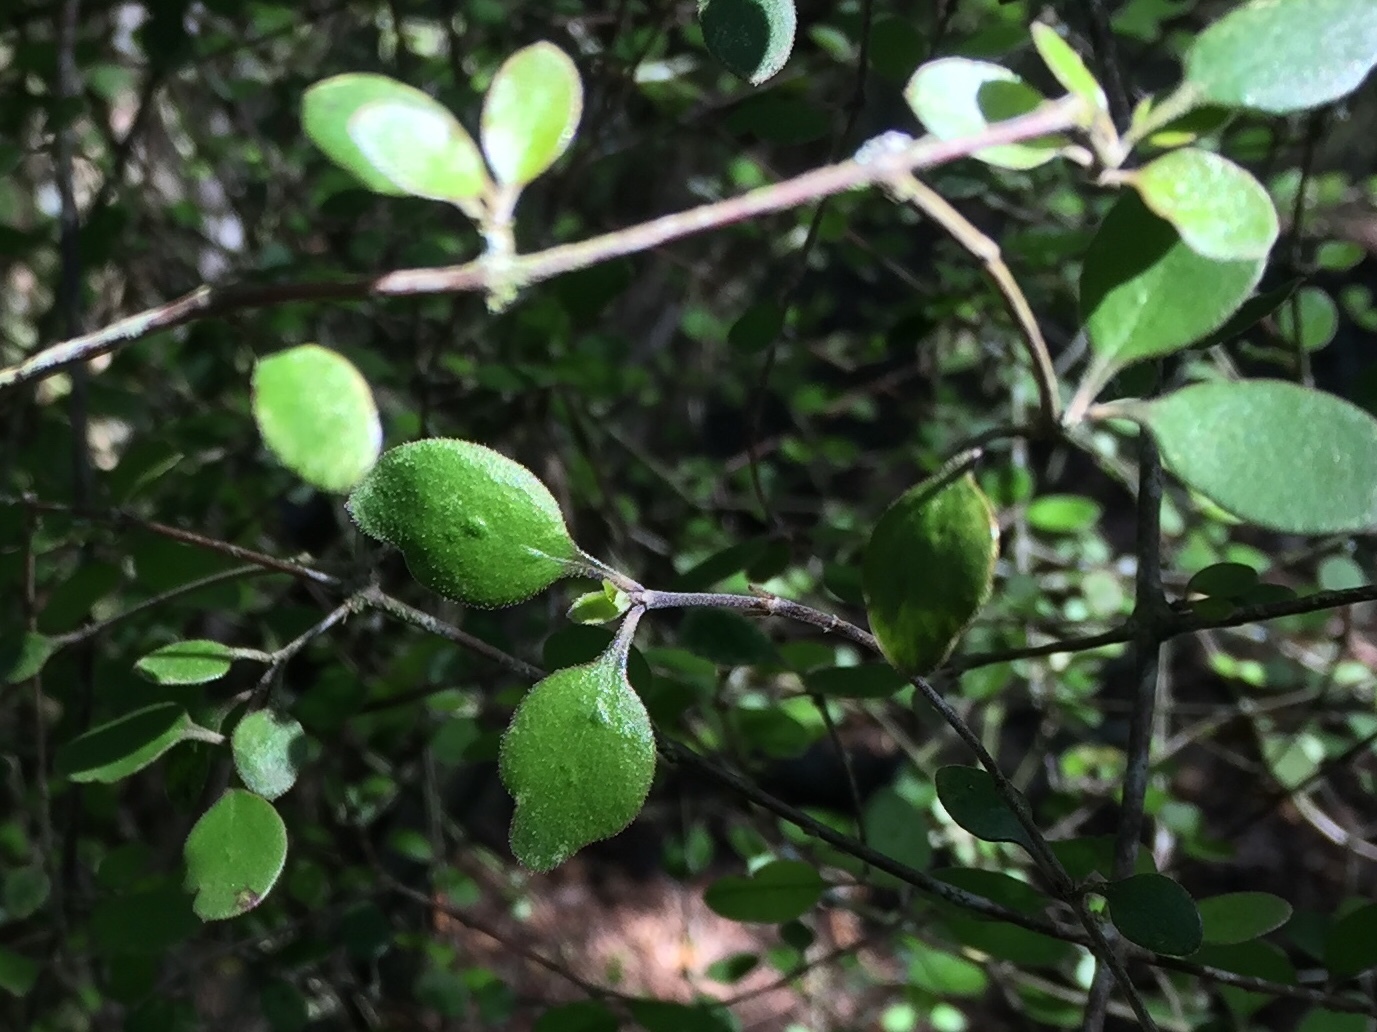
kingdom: Plantae
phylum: Tracheophyta
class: Magnoliopsida
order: Gentianales
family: Rubiaceae
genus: Coprosma
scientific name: Coprosma crassifolia
